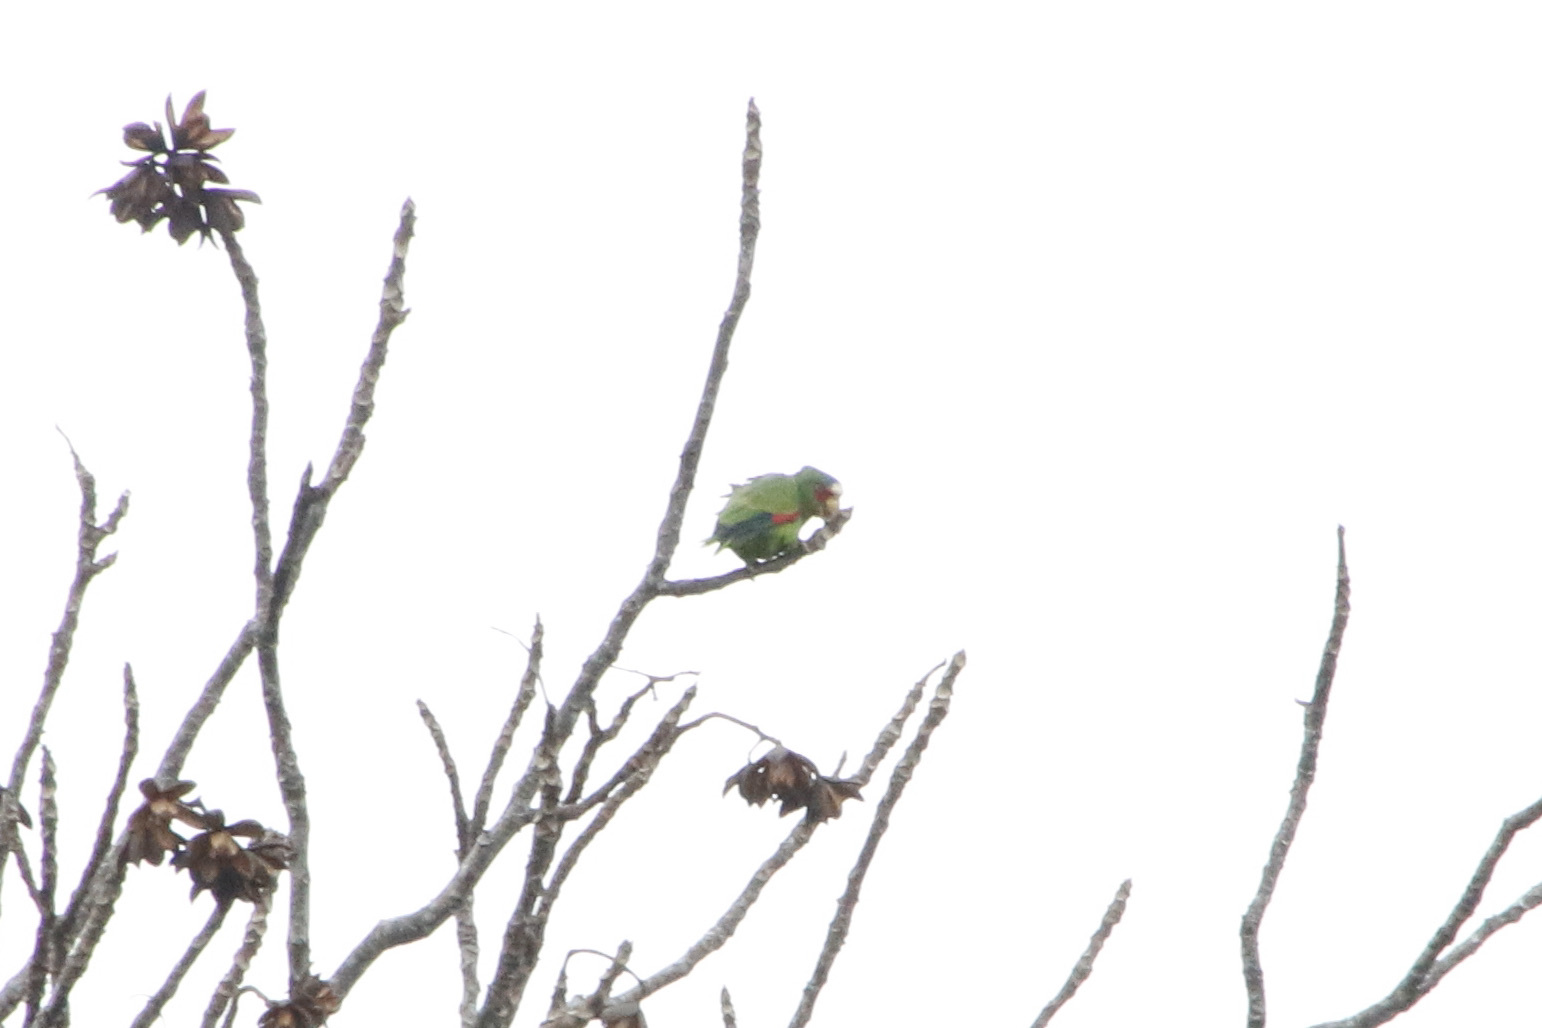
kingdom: Animalia
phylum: Chordata
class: Aves
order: Psittaciformes
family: Psittacidae
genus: Amazona
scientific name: Amazona albifrons
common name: White-fronted amazon
